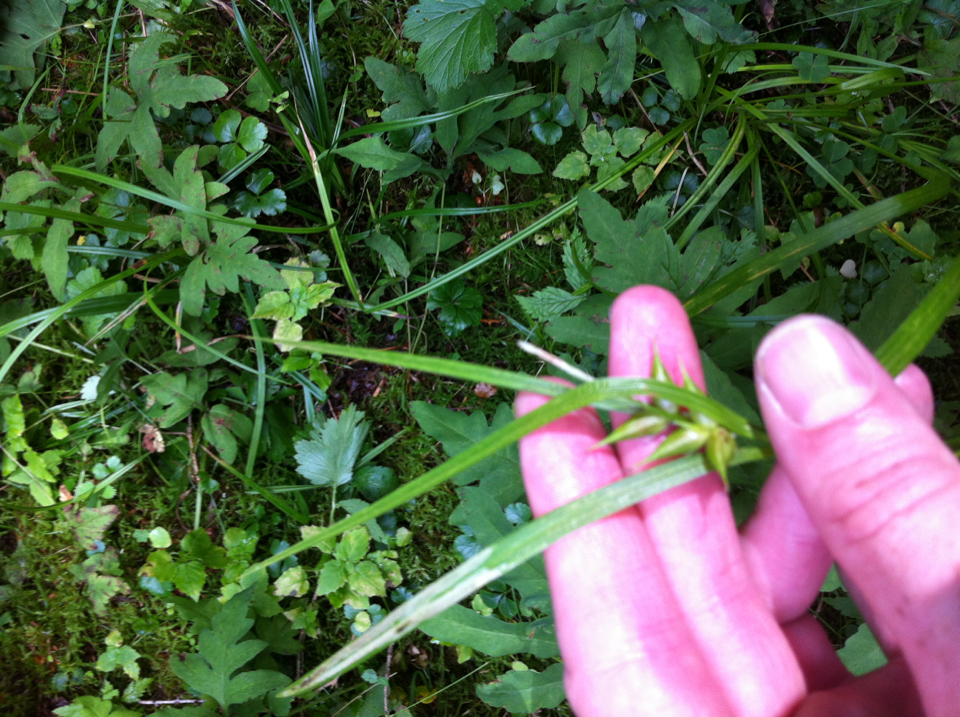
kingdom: Plantae
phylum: Tracheophyta
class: Liliopsida
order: Poales
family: Cyperaceae
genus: Carex
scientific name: Carex intumescens
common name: Greater bladder sedge
